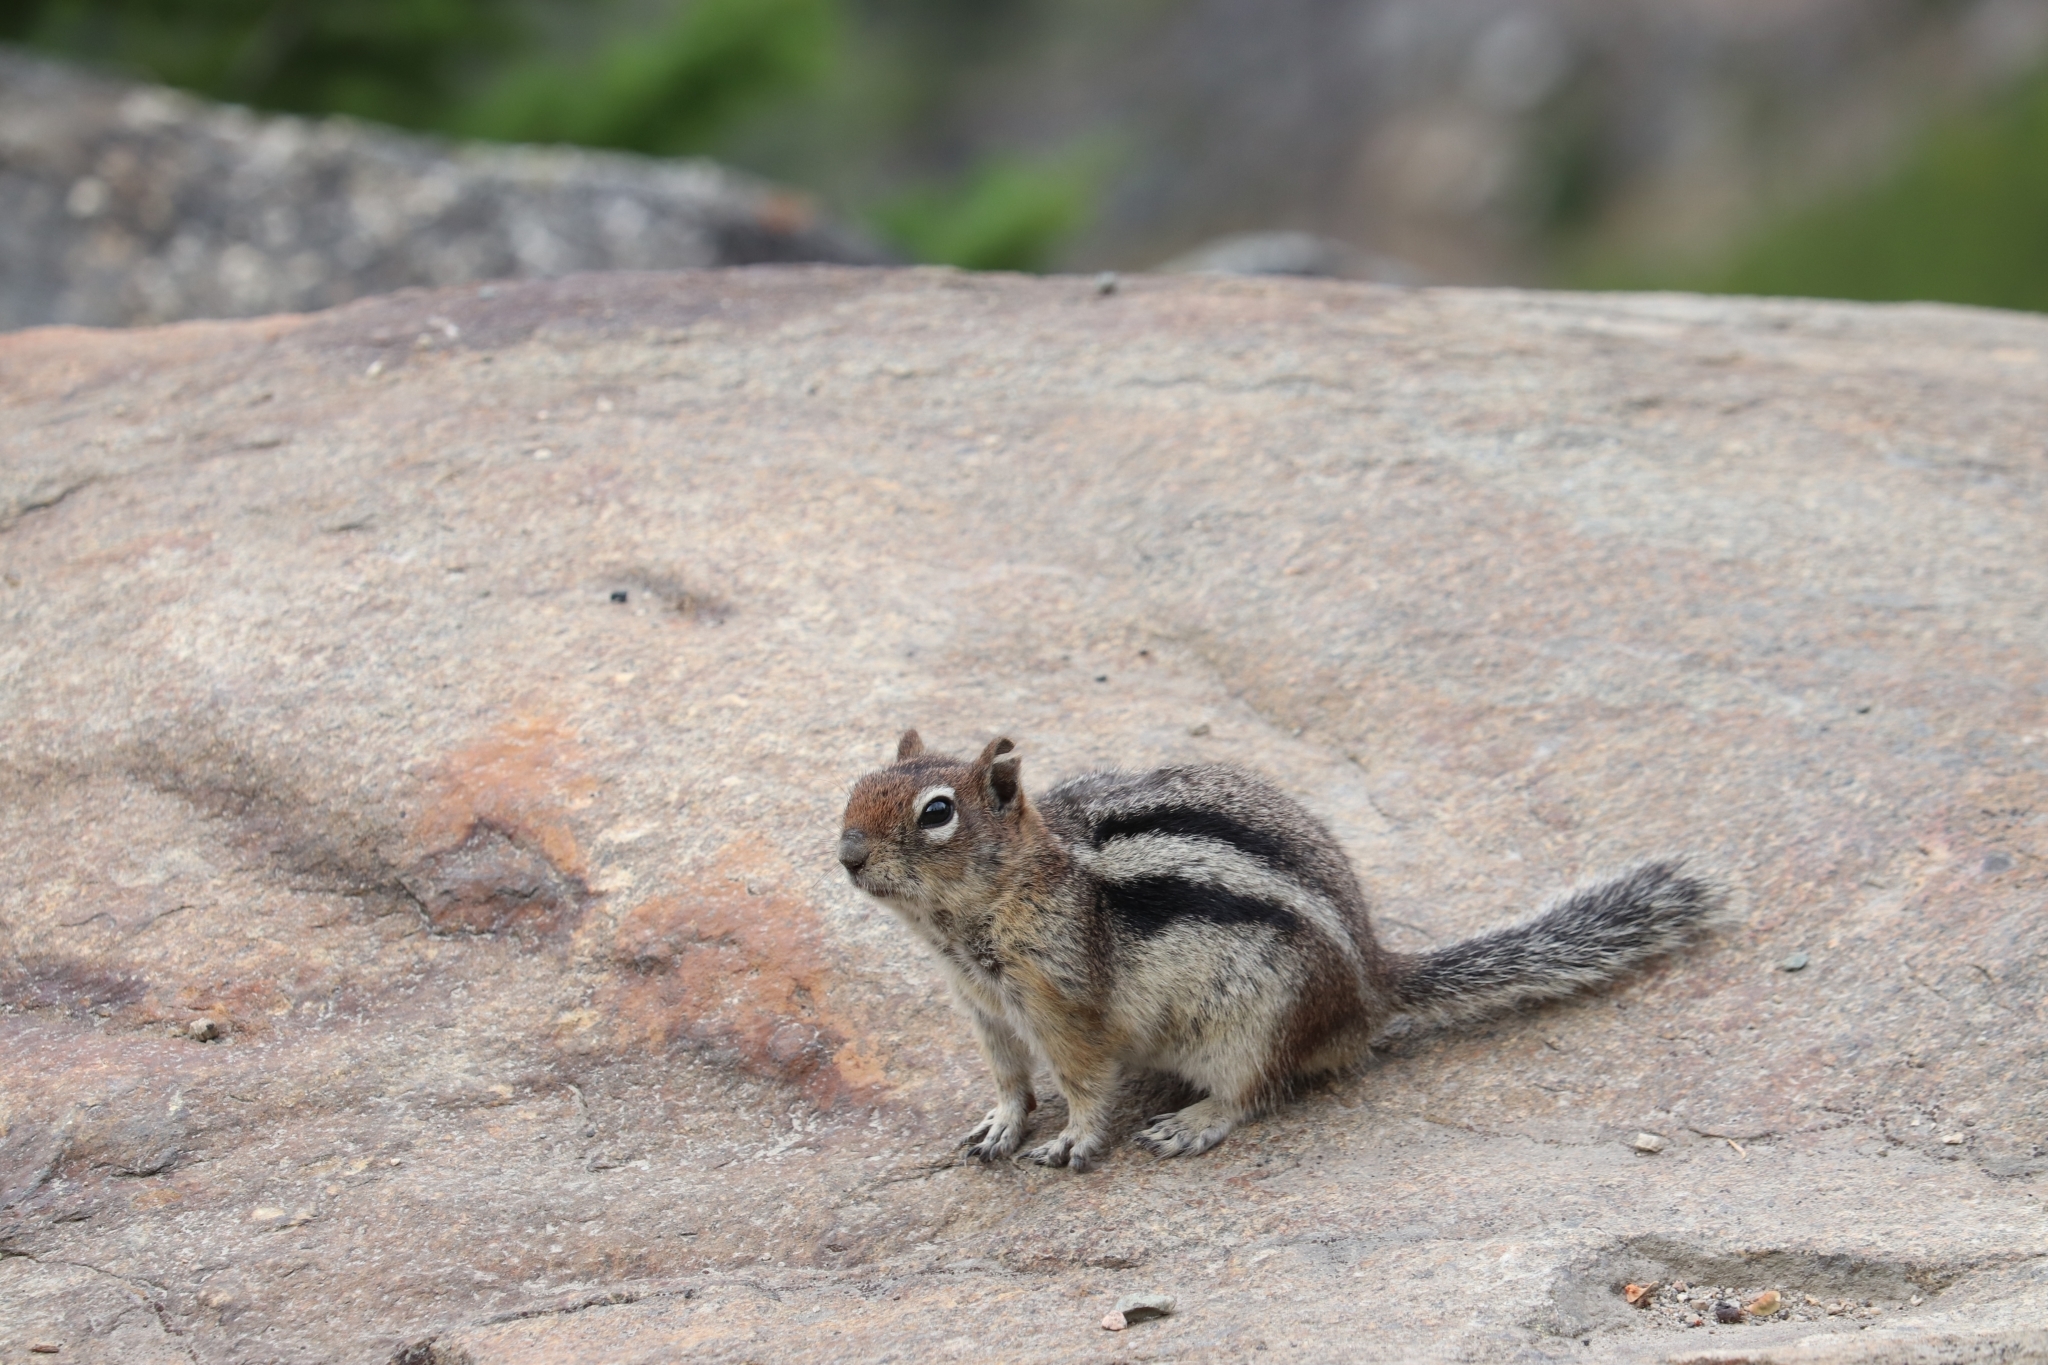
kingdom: Animalia
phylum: Chordata
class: Mammalia
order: Rodentia
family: Sciuridae
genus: Callospermophilus
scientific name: Callospermophilus lateralis
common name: Golden-mantled ground squirrel
